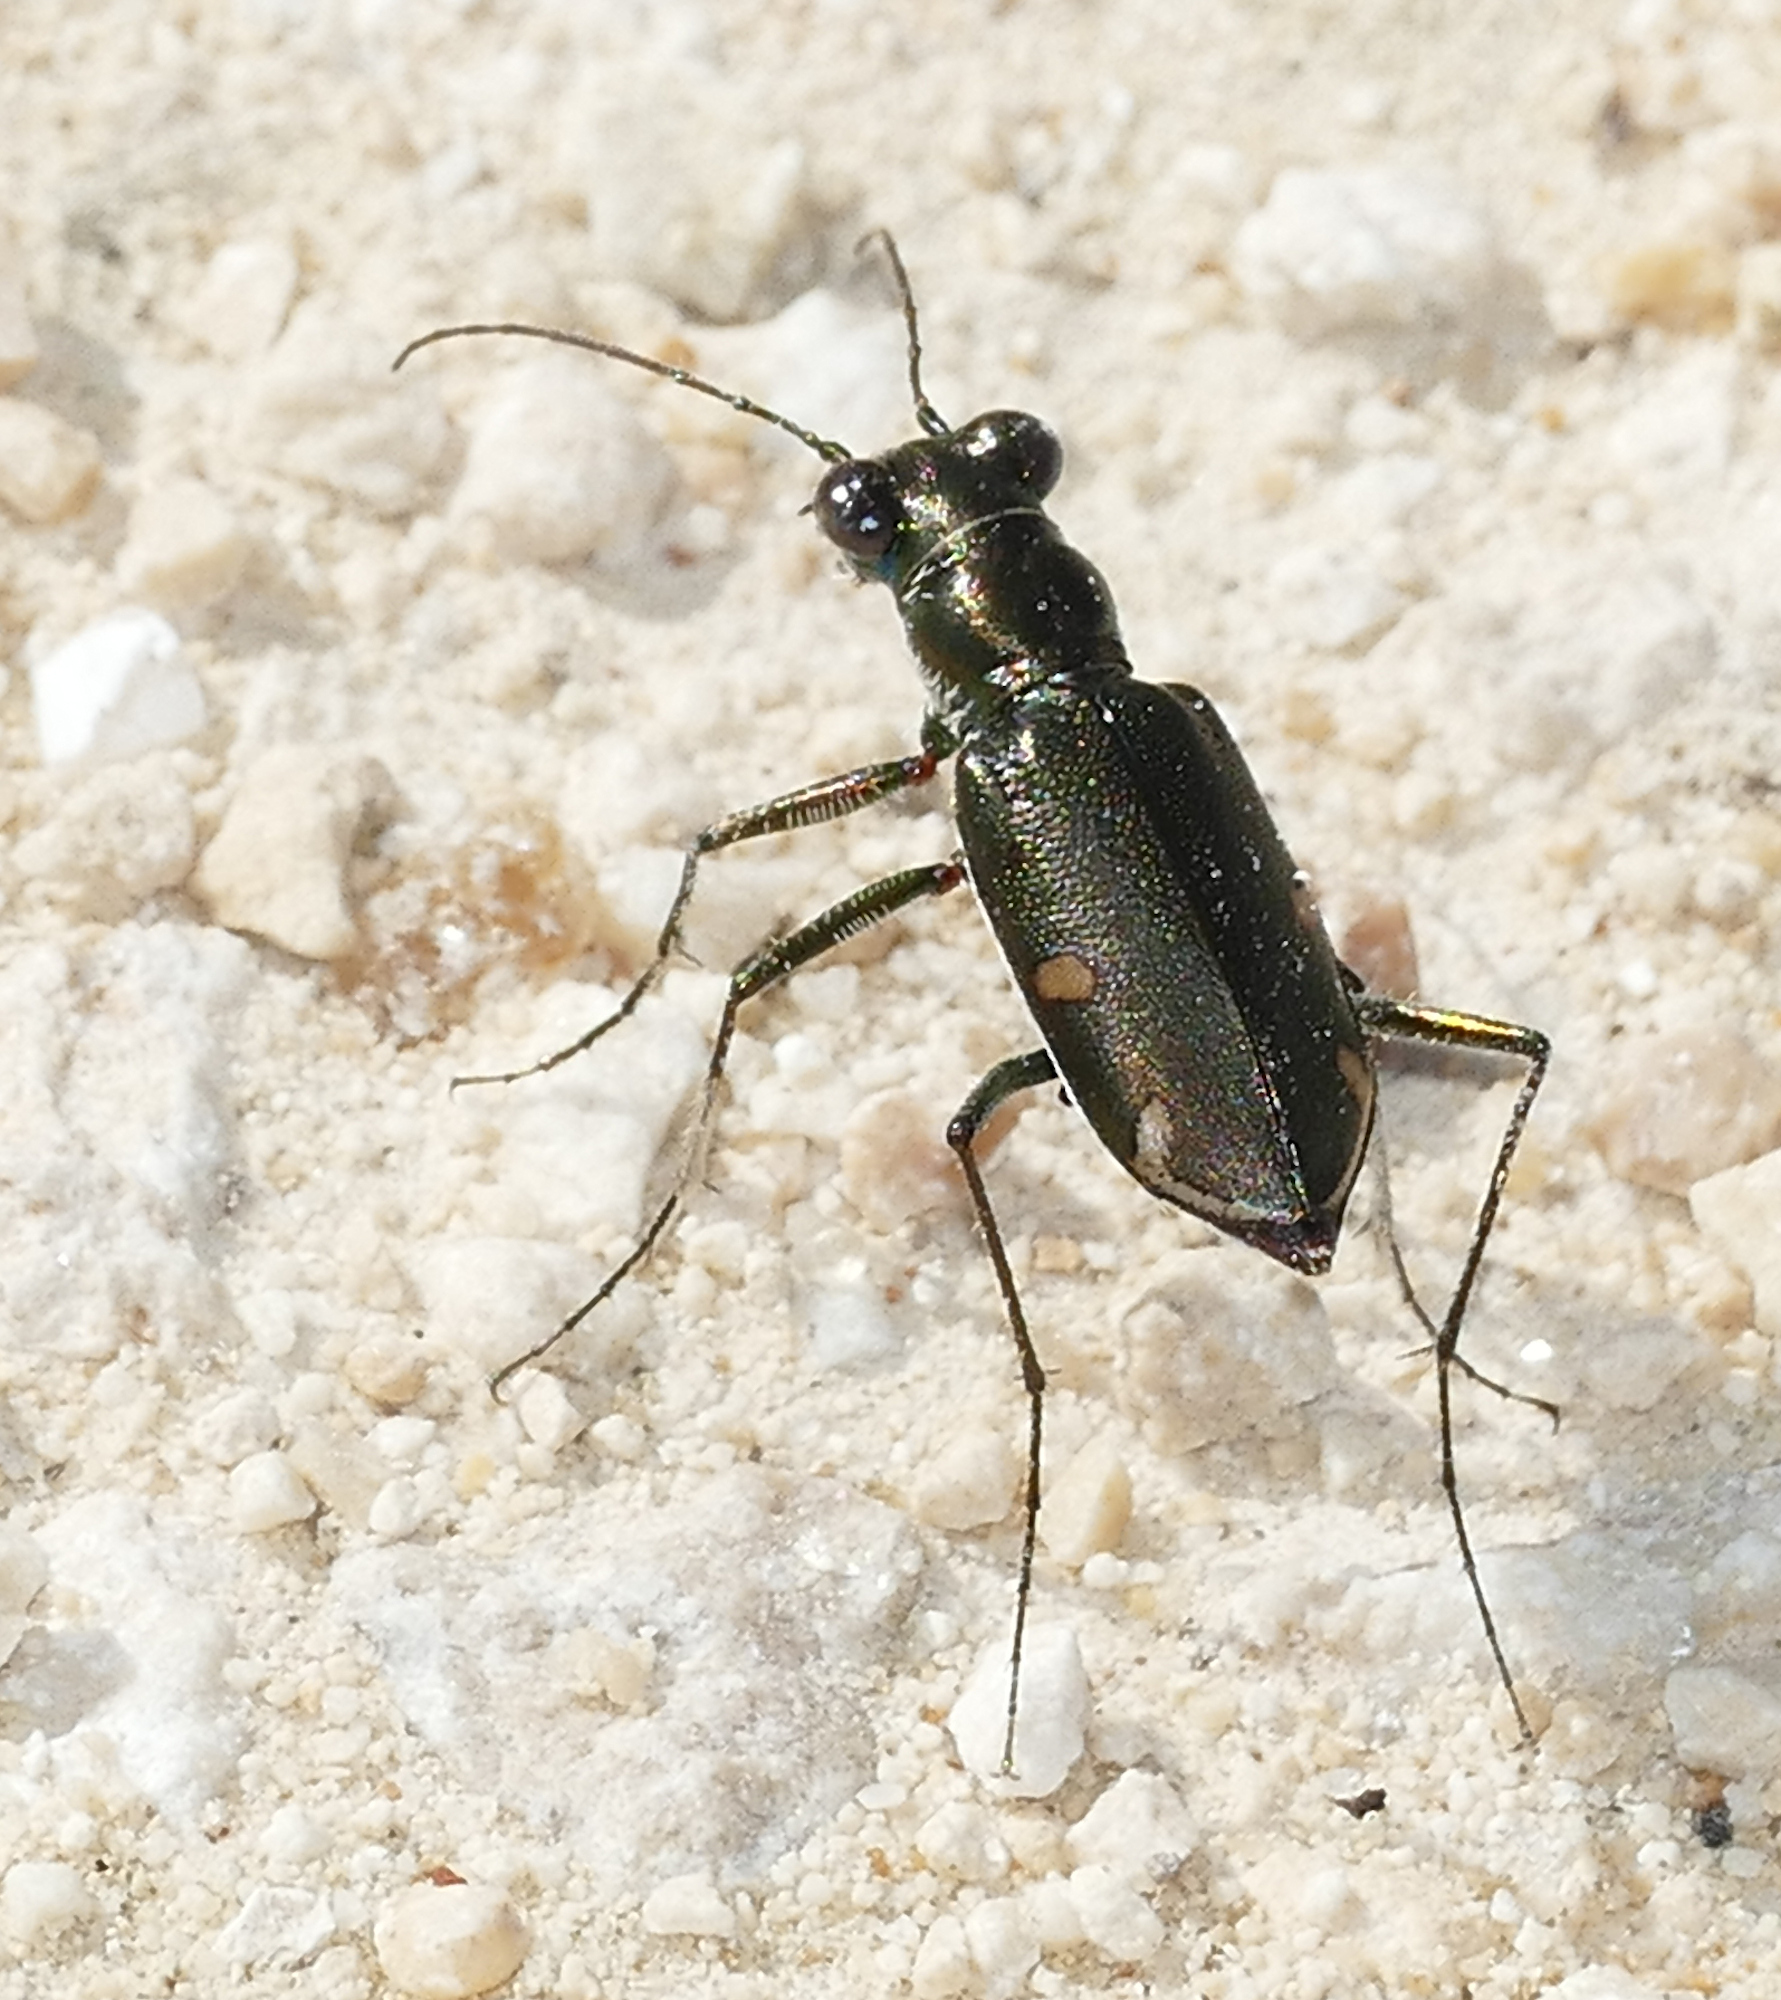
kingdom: Animalia
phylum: Arthropoda
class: Insecta
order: Coleoptera
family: Carabidae
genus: Eunota
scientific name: Eunota severa
